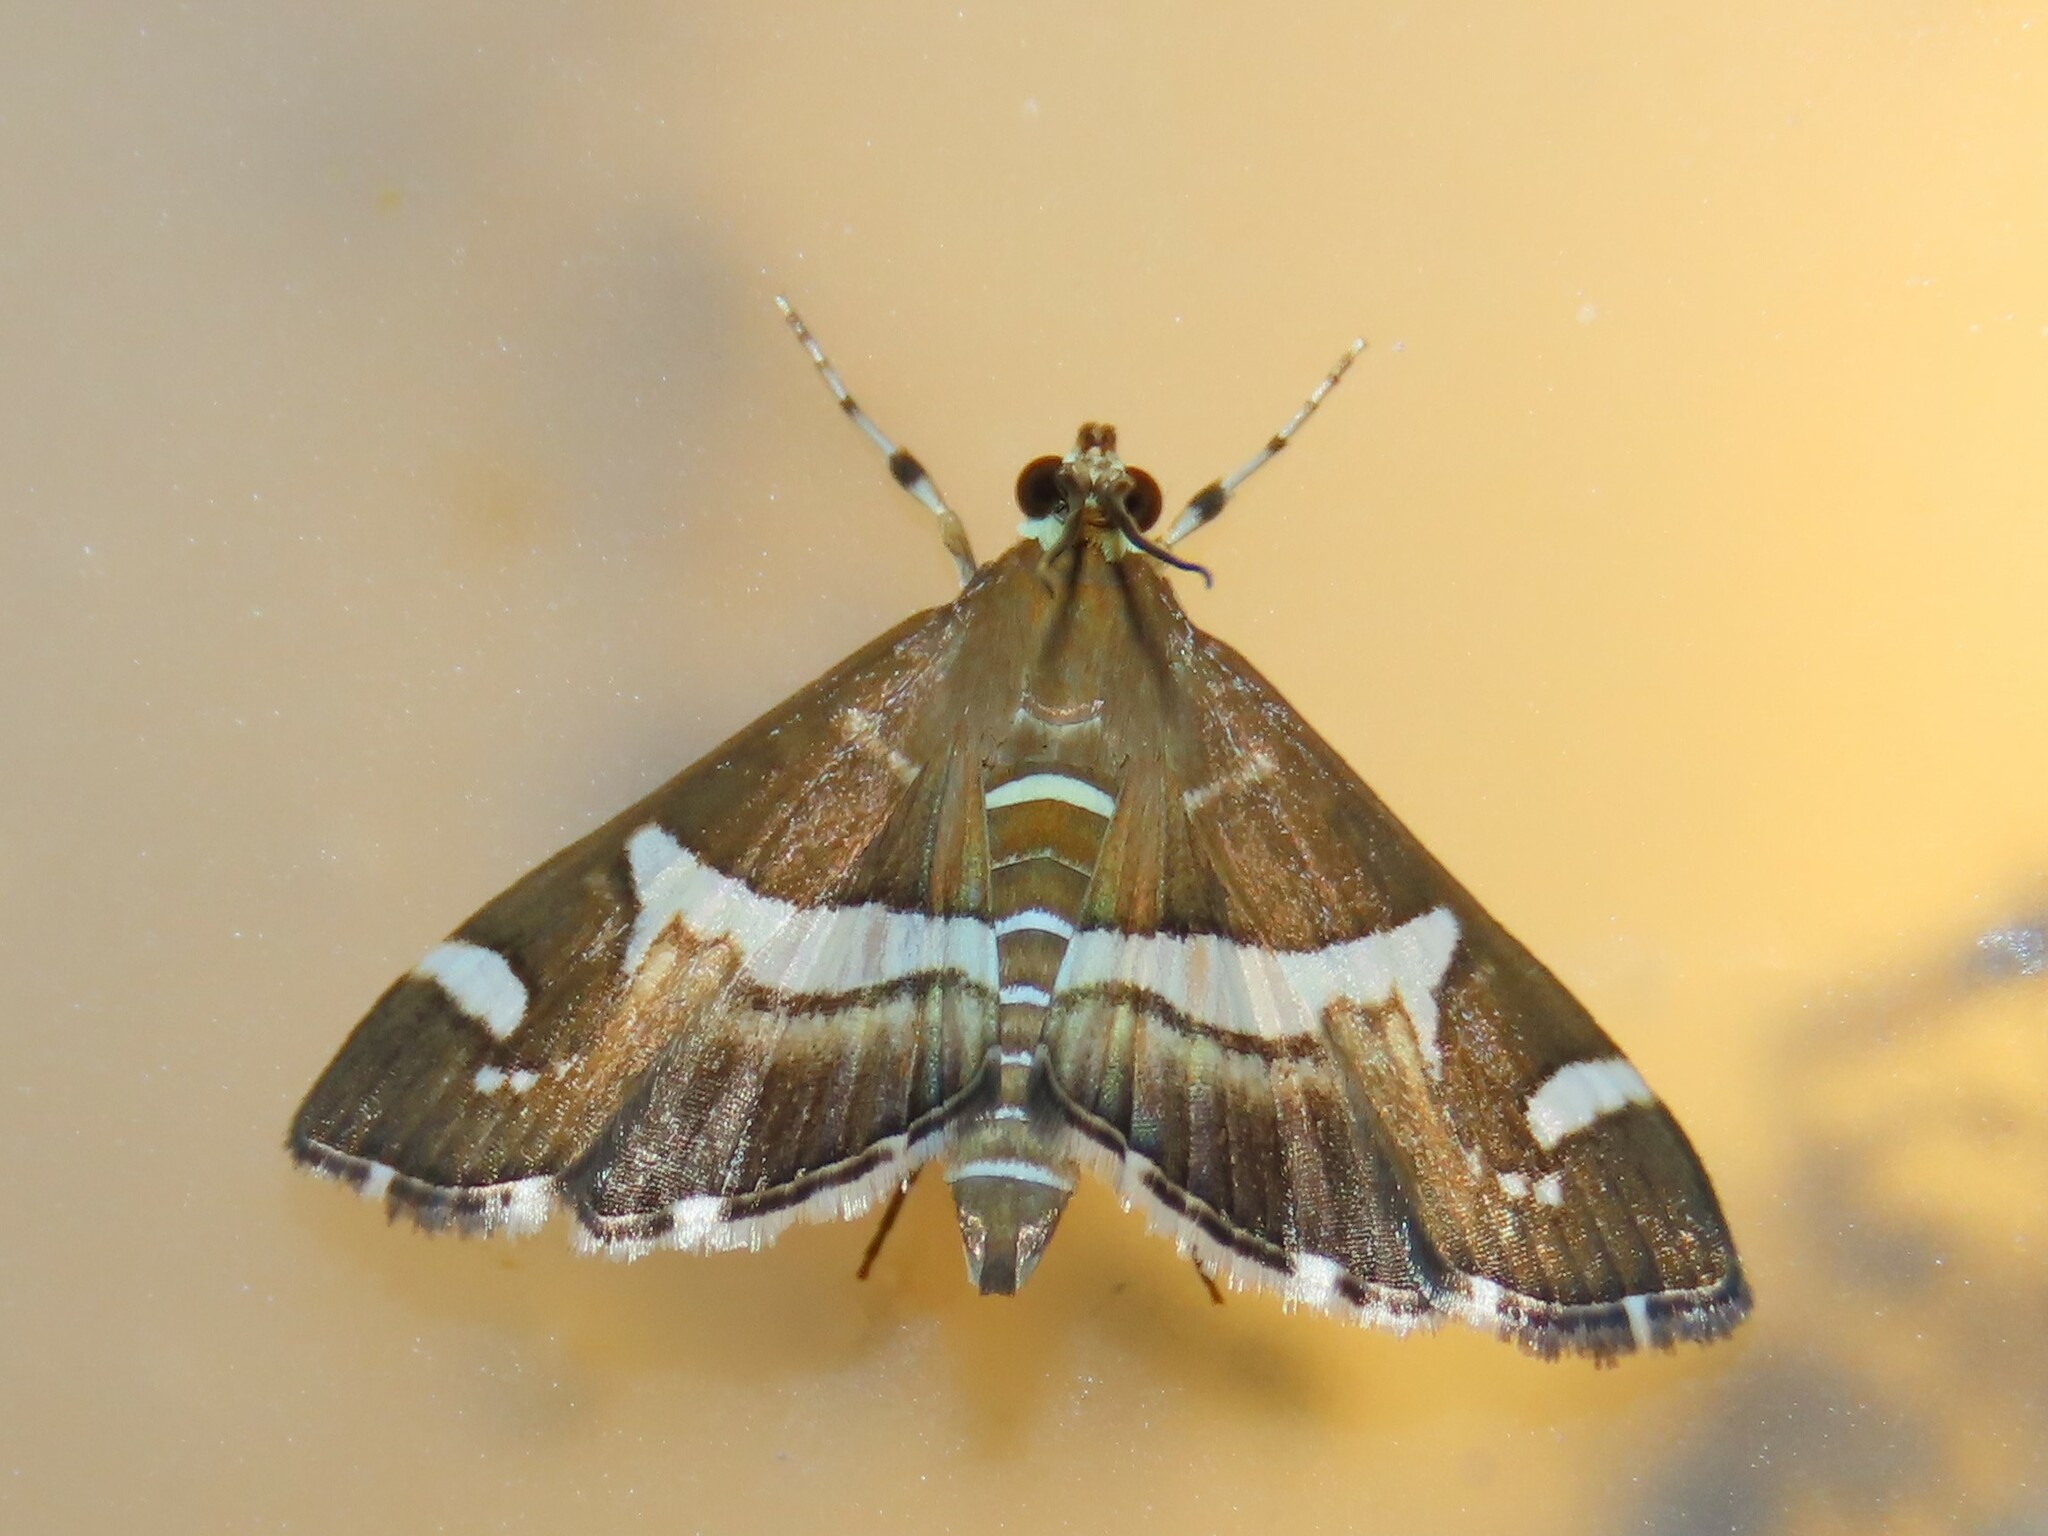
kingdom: Animalia
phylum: Arthropoda
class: Insecta
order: Lepidoptera
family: Crambidae
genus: Spoladea
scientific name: Spoladea recurvalis
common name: Beet webworm moth
